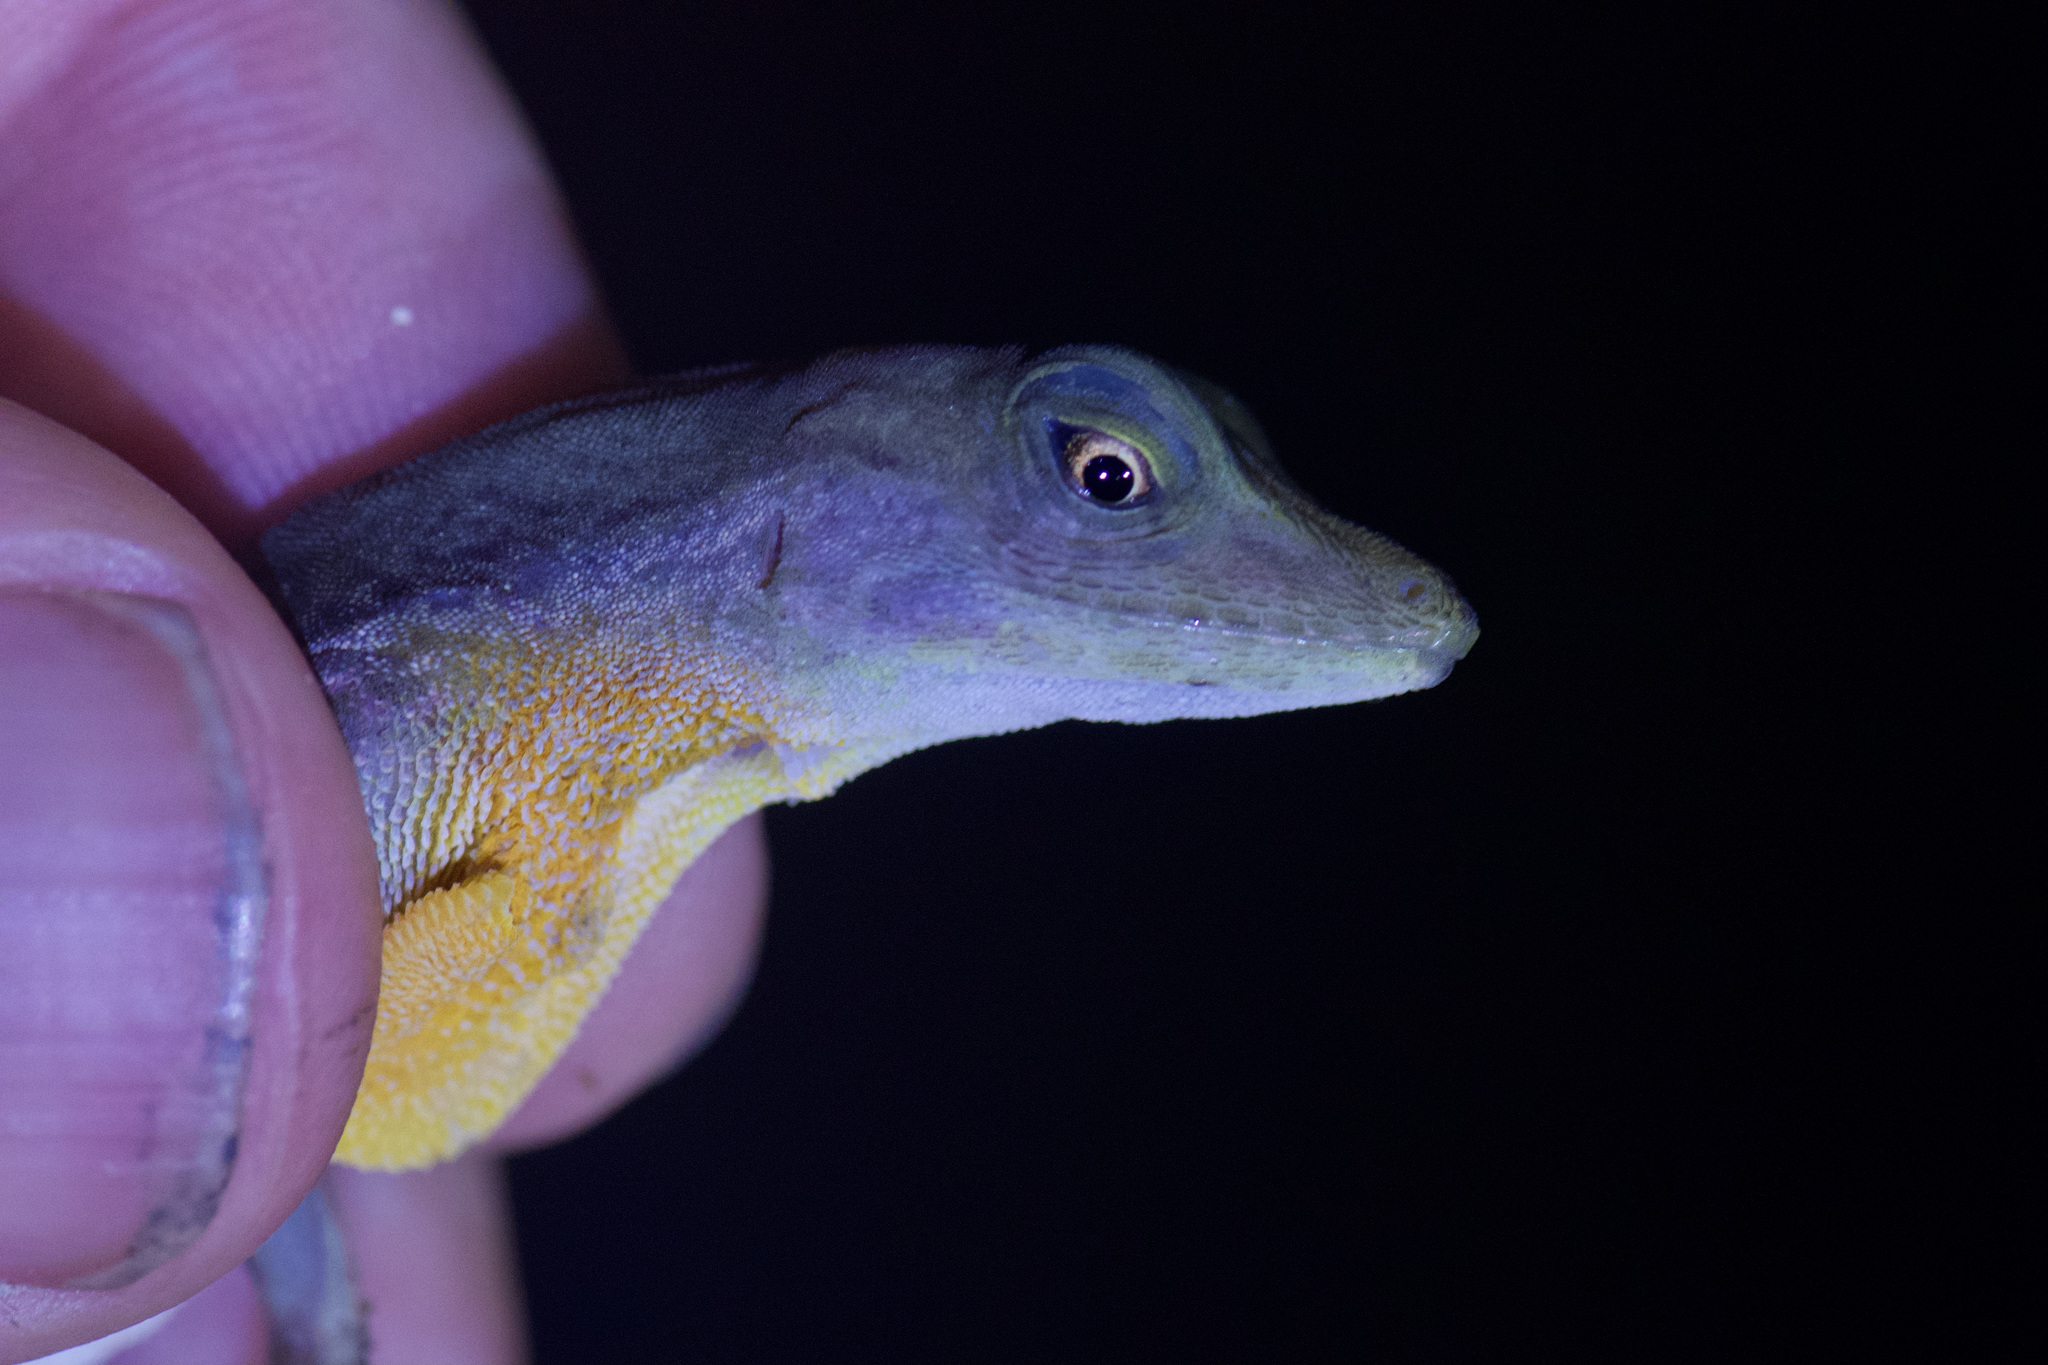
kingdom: Animalia
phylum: Chordata
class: Squamata
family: Dactyloidae
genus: Anolis
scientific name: Anolis gaigei
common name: Gaige’s anole
